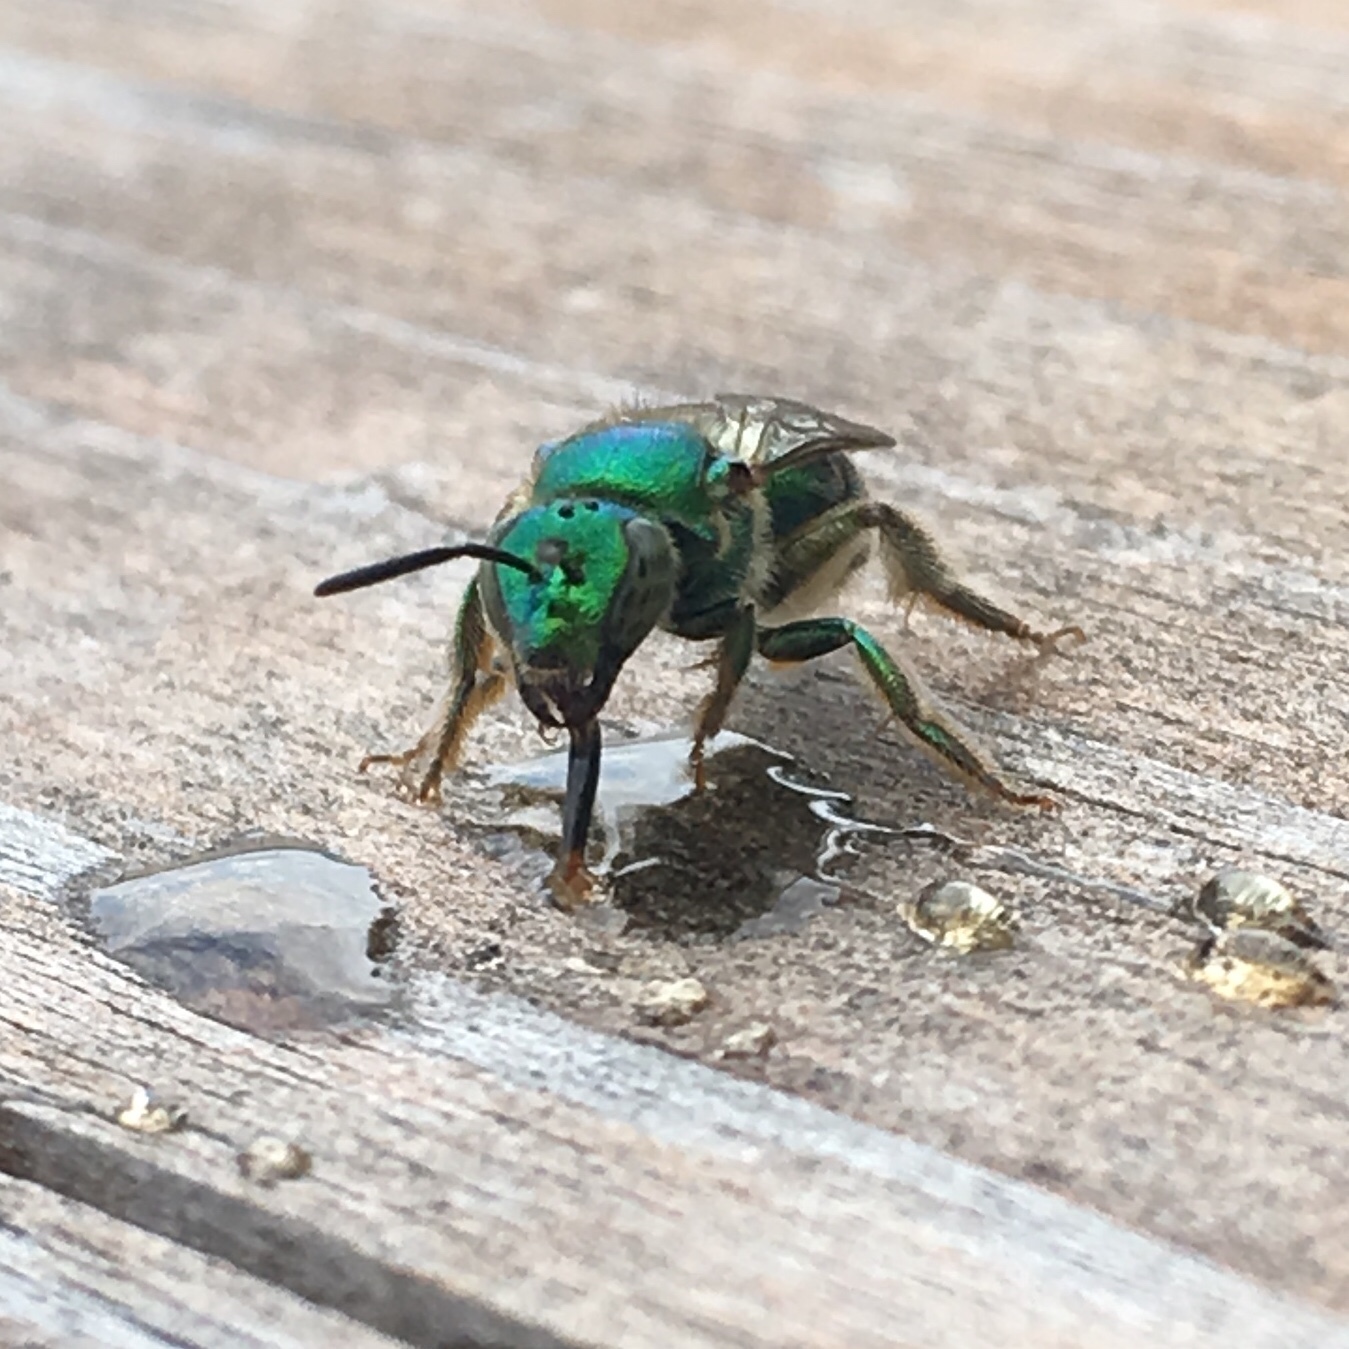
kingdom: Animalia
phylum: Arthropoda
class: Insecta
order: Hymenoptera
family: Halictidae
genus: Augochloropsis
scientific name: Augochloropsis viridula
